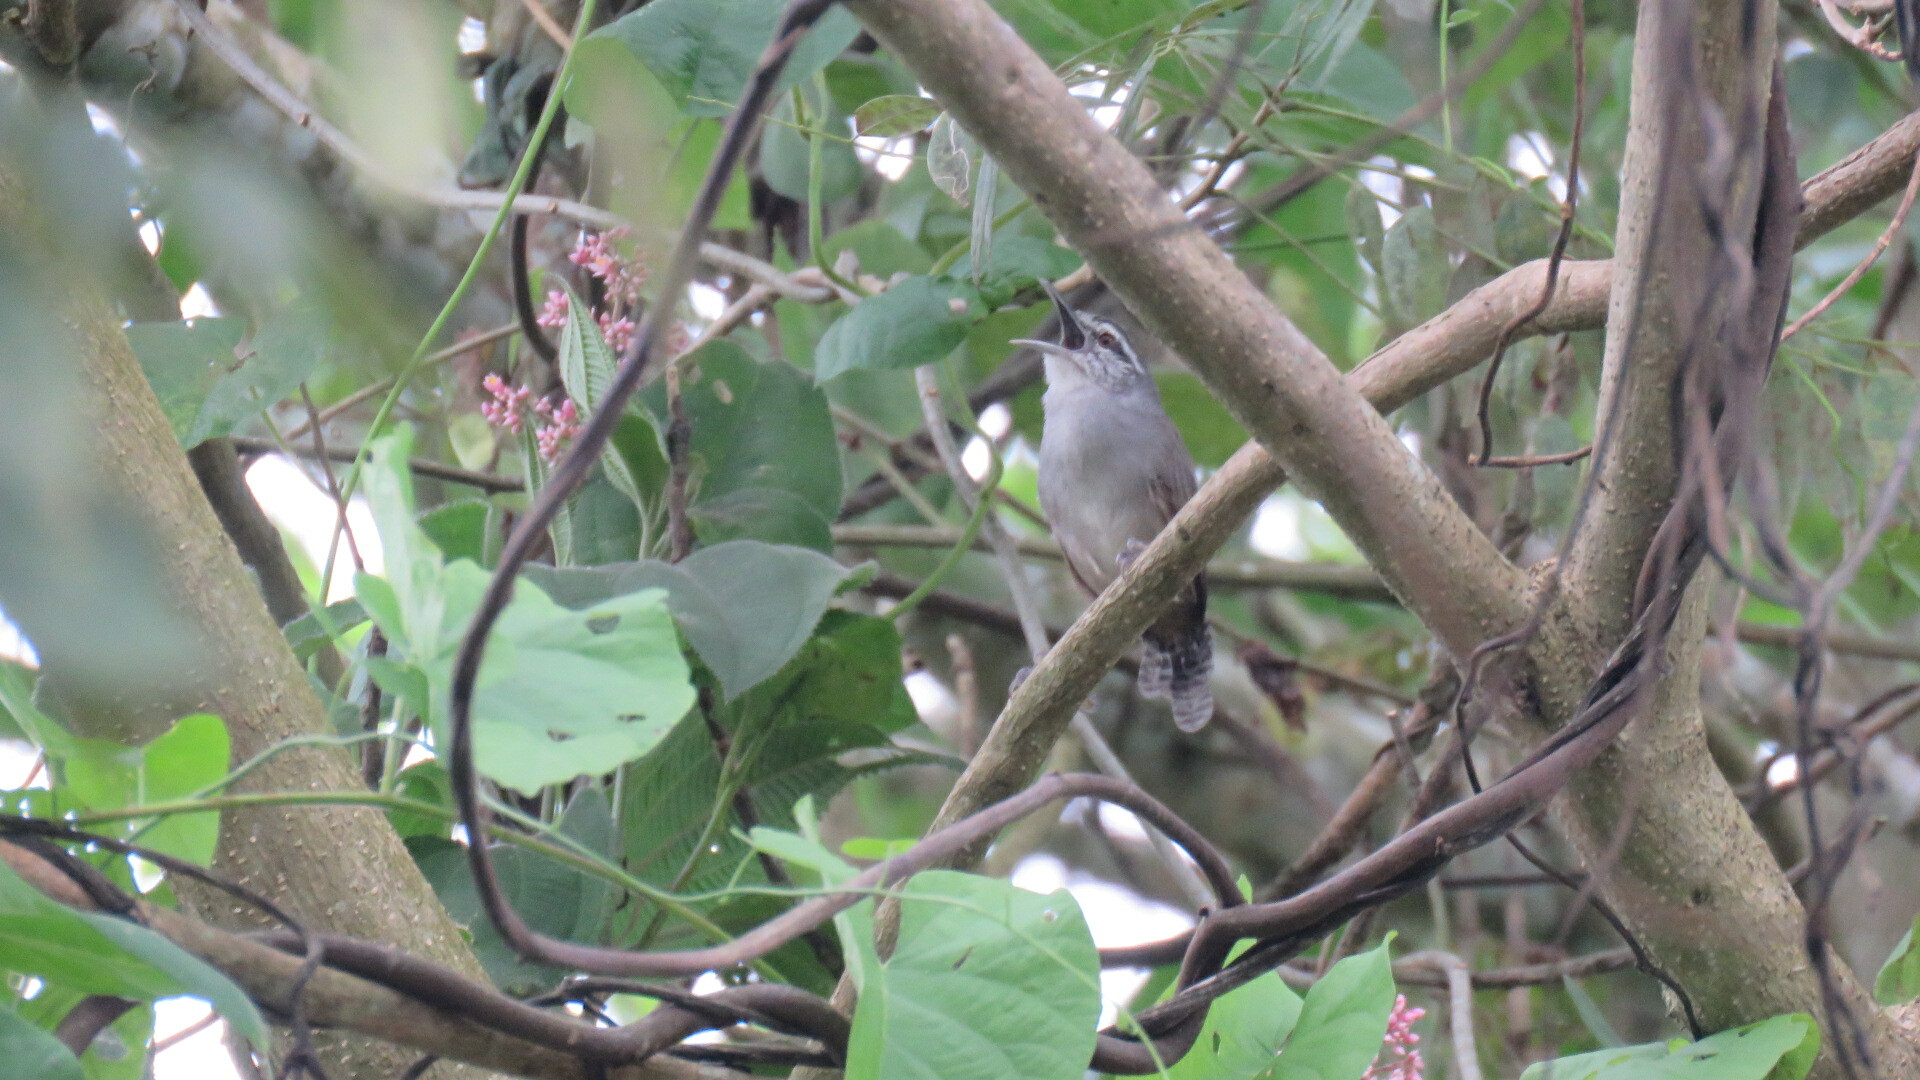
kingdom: Animalia
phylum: Chordata
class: Aves
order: Passeriformes
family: Troglodytidae
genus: Cantorchilus
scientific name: Cantorchilus modestus
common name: Cabanis's wren
